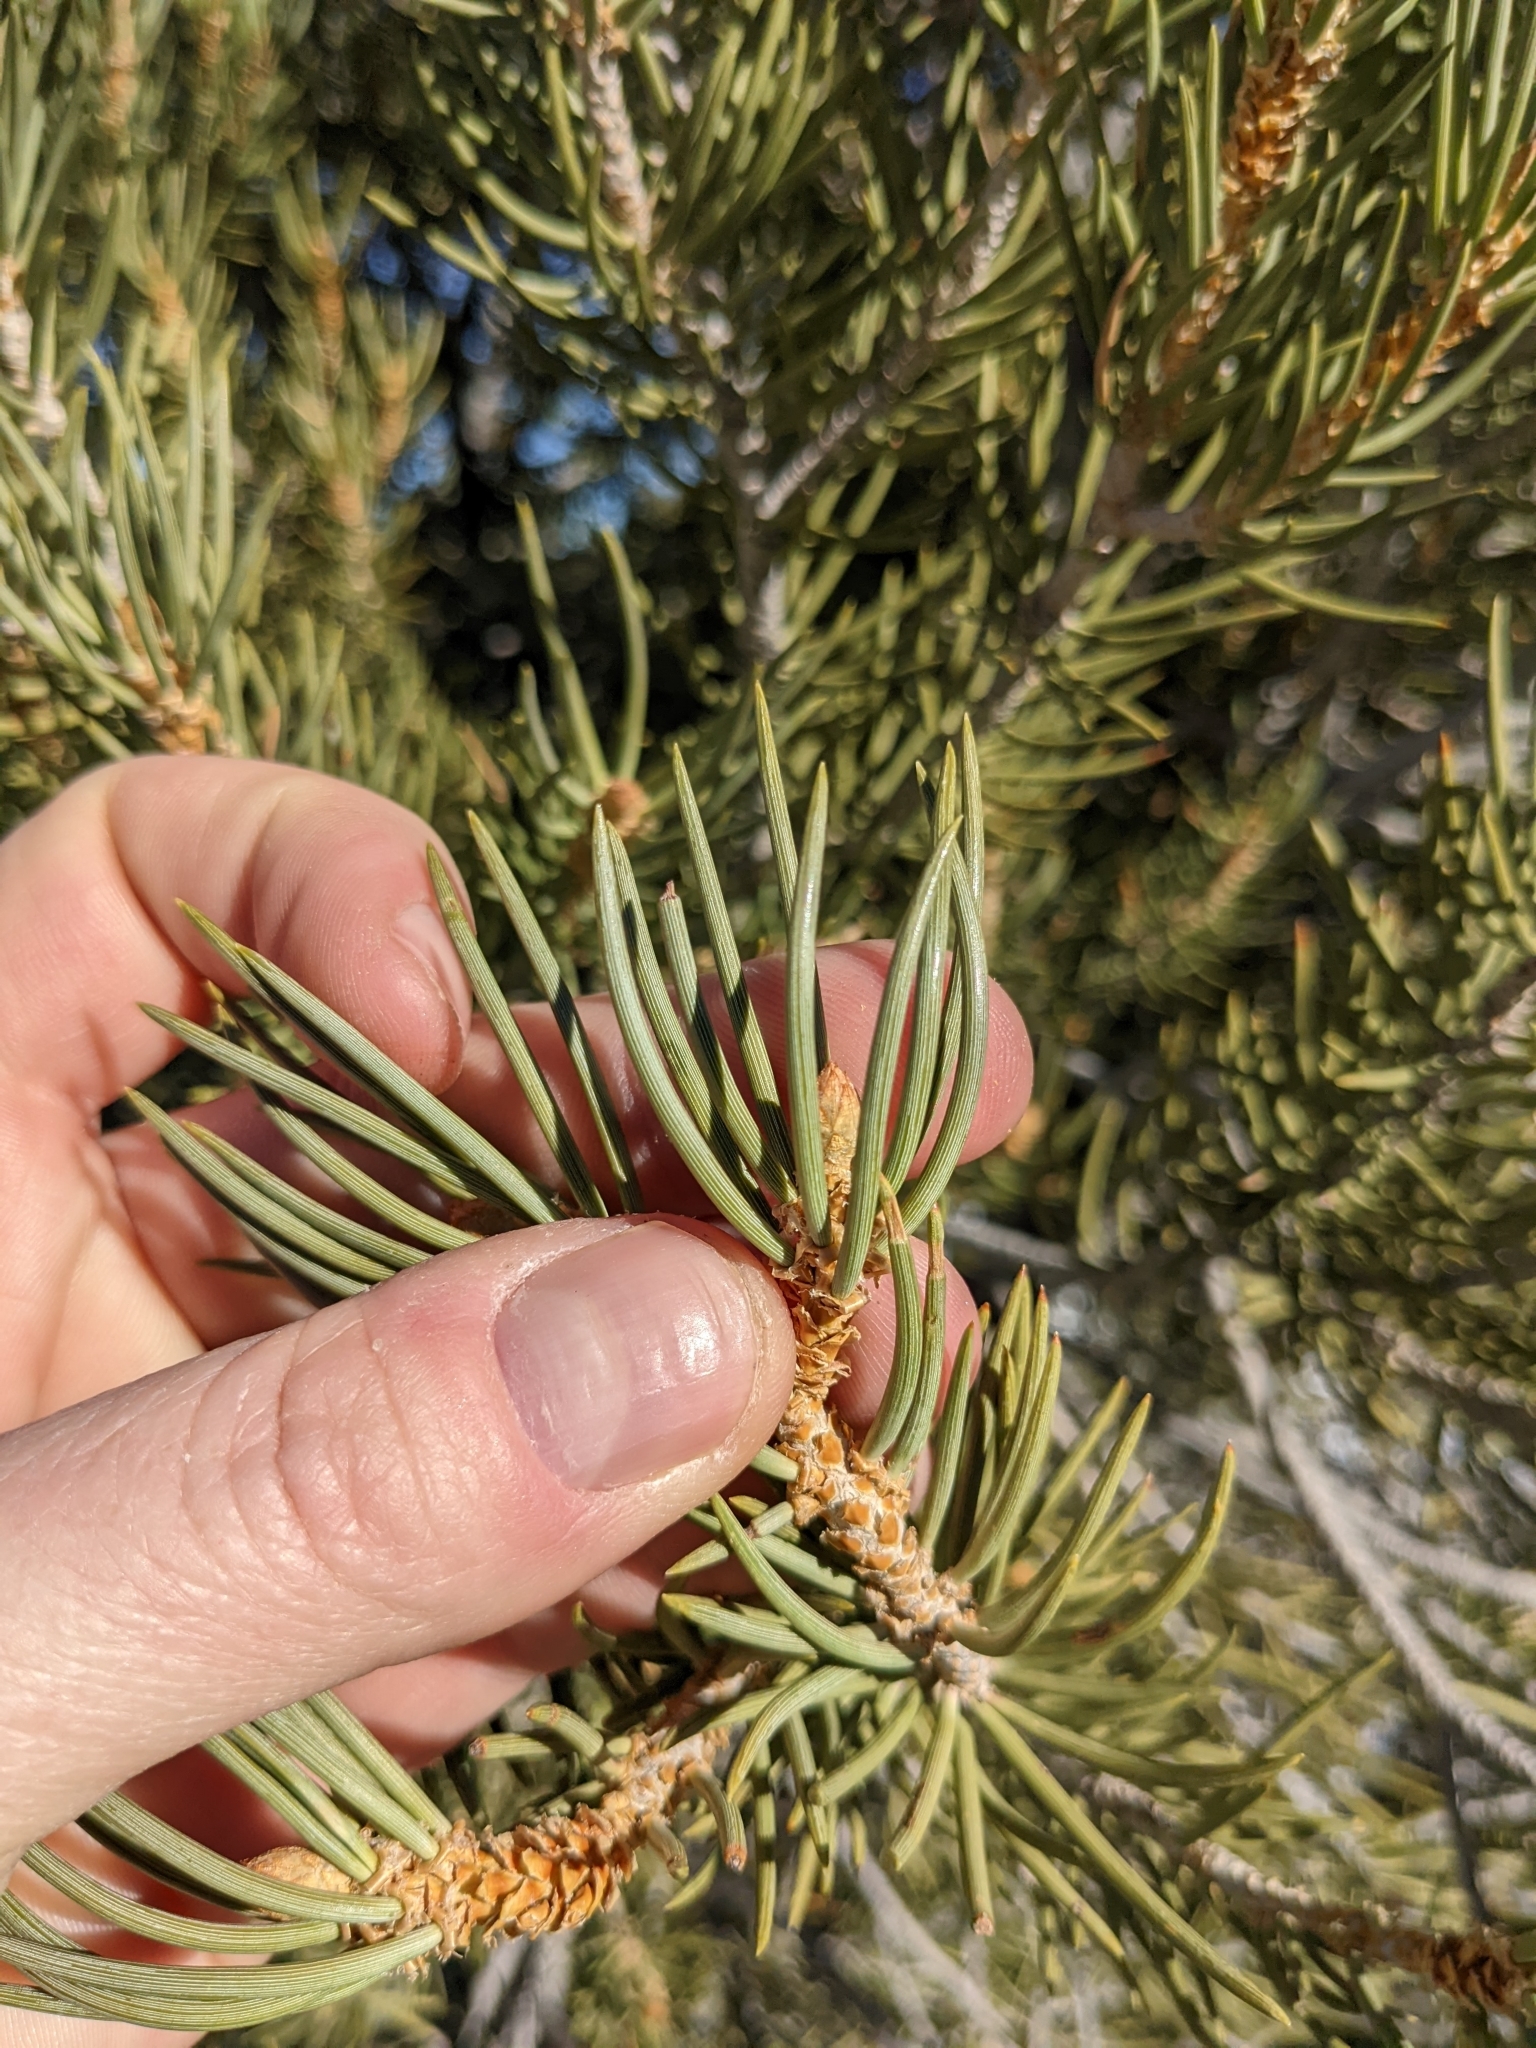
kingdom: Plantae
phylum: Tracheophyta
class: Pinopsida
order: Pinales
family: Pinaceae
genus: Pinus
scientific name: Pinus monophylla
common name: One-leaved nut pine
